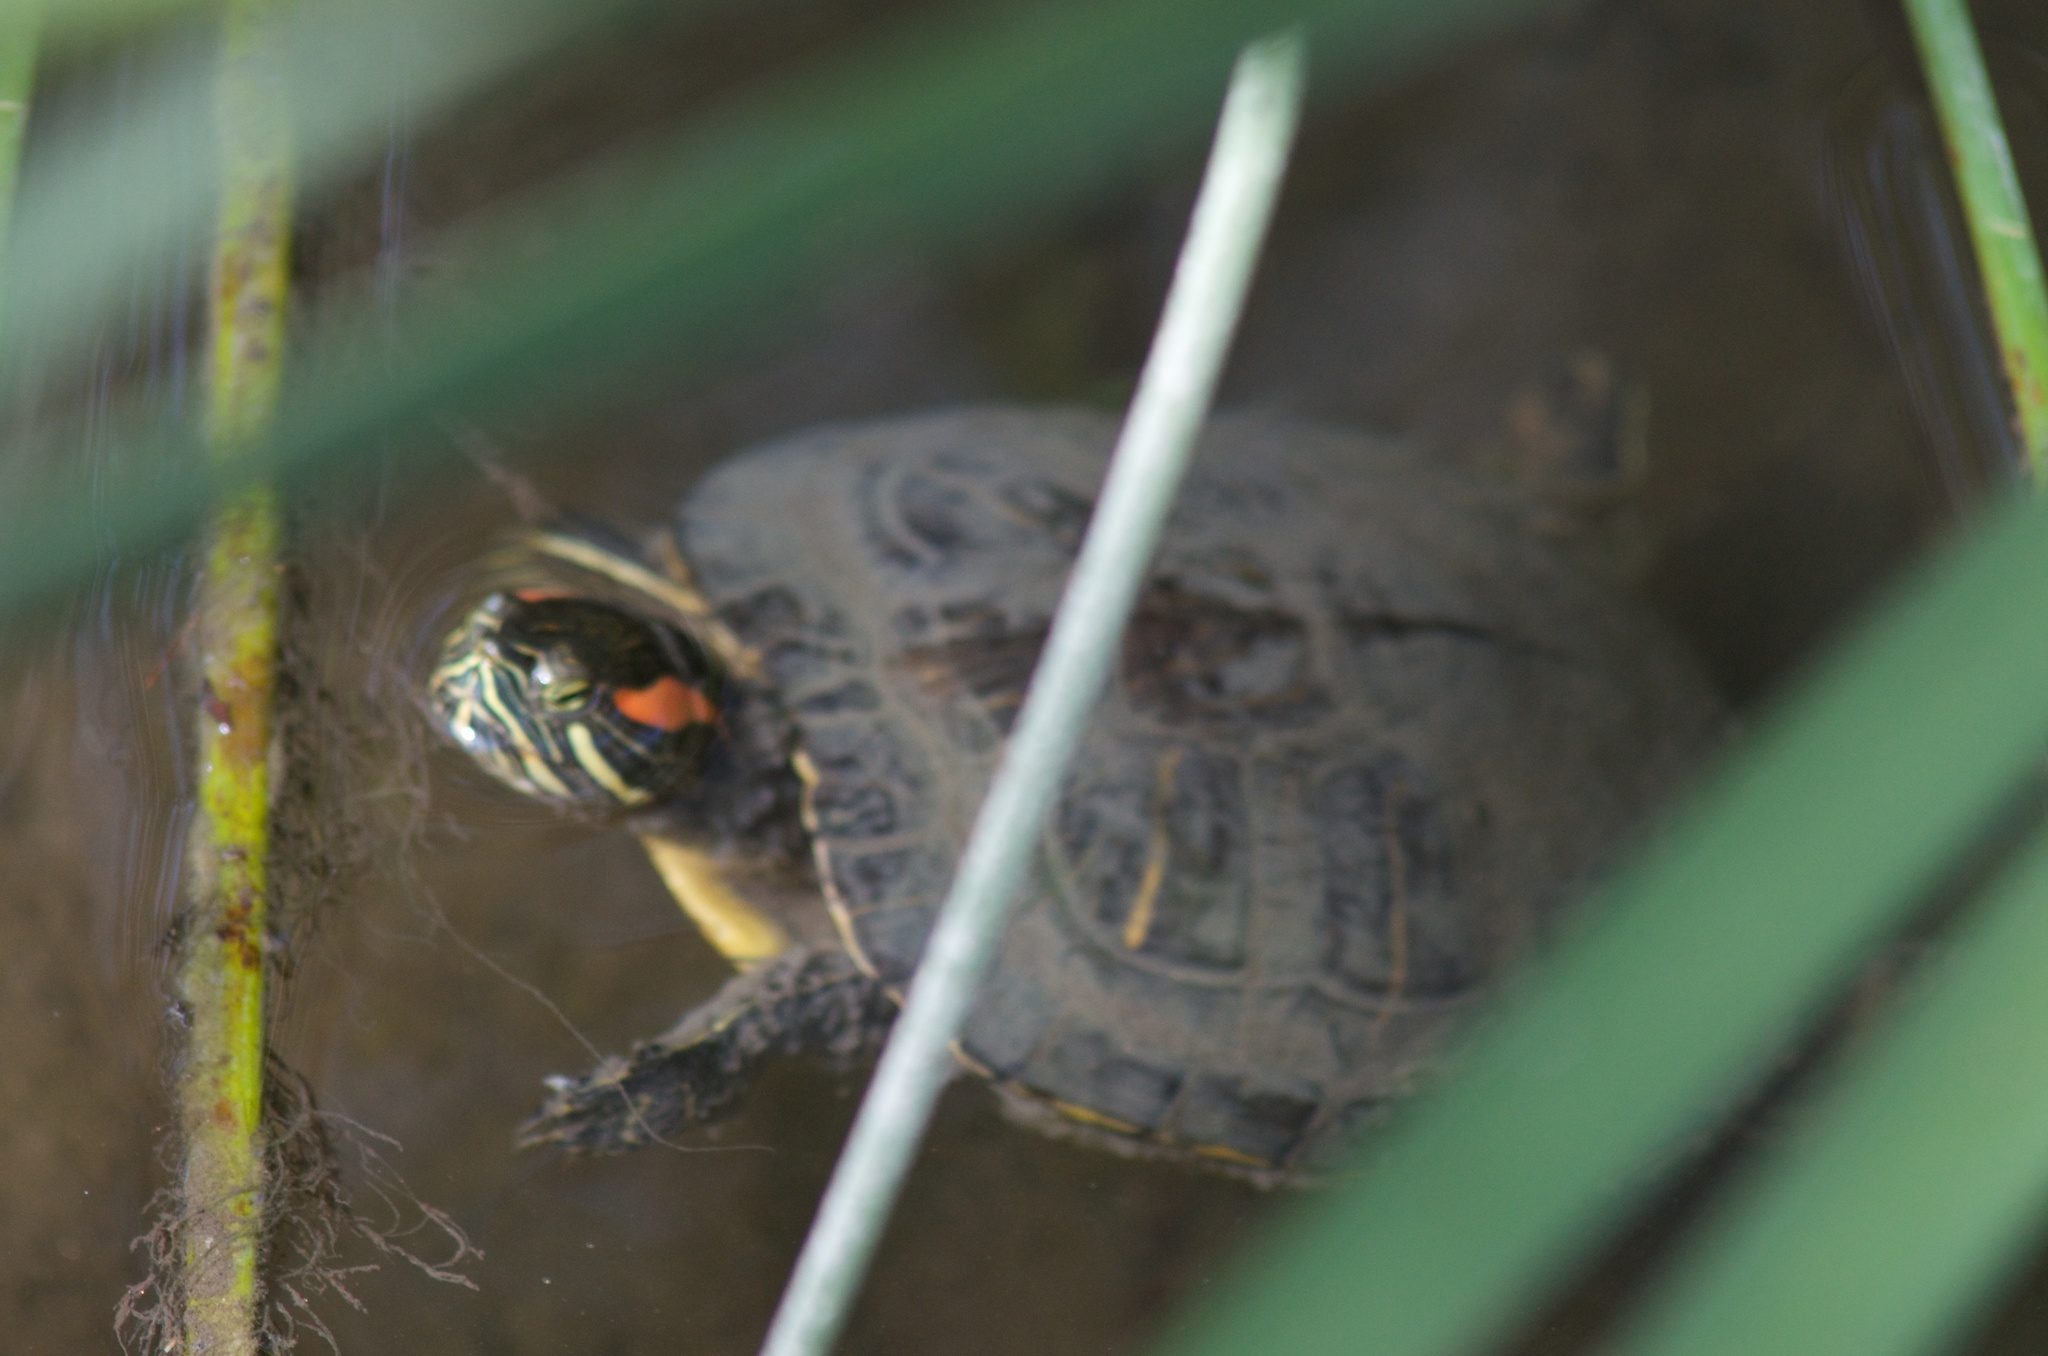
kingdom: Animalia
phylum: Chordata
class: Testudines
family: Emydidae
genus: Trachemys
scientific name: Trachemys scripta
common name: Slider
